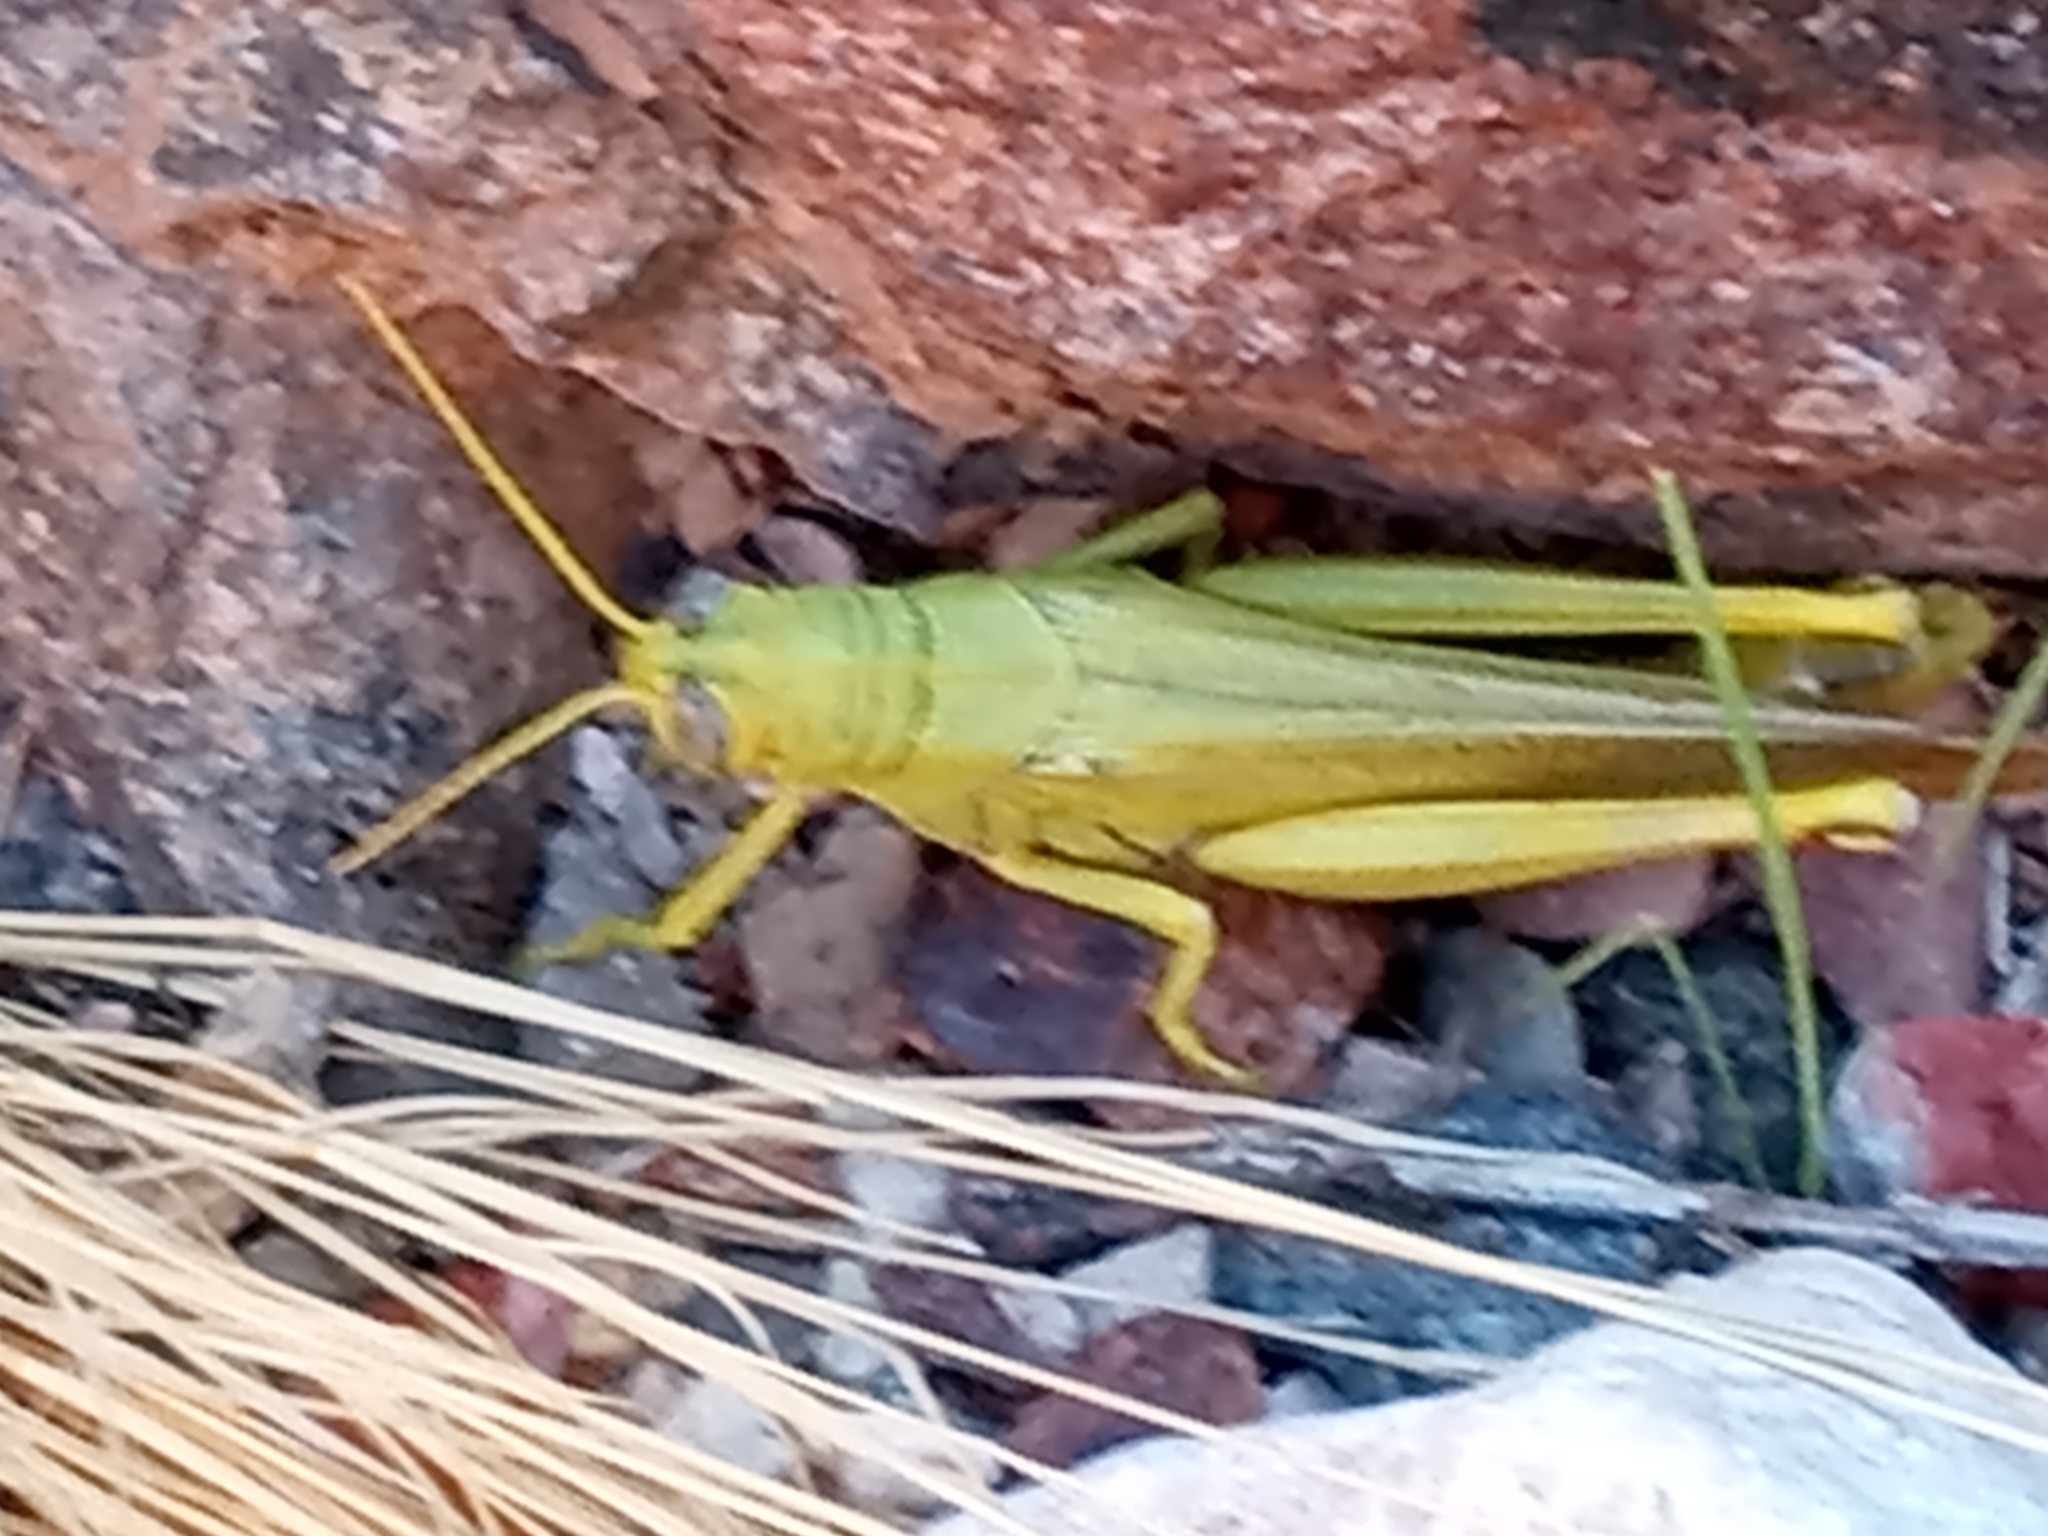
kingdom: Animalia
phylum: Arthropoda
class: Insecta
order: Orthoptera
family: Acrididae
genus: Schistocerca
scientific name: Schistocerca shoshone
